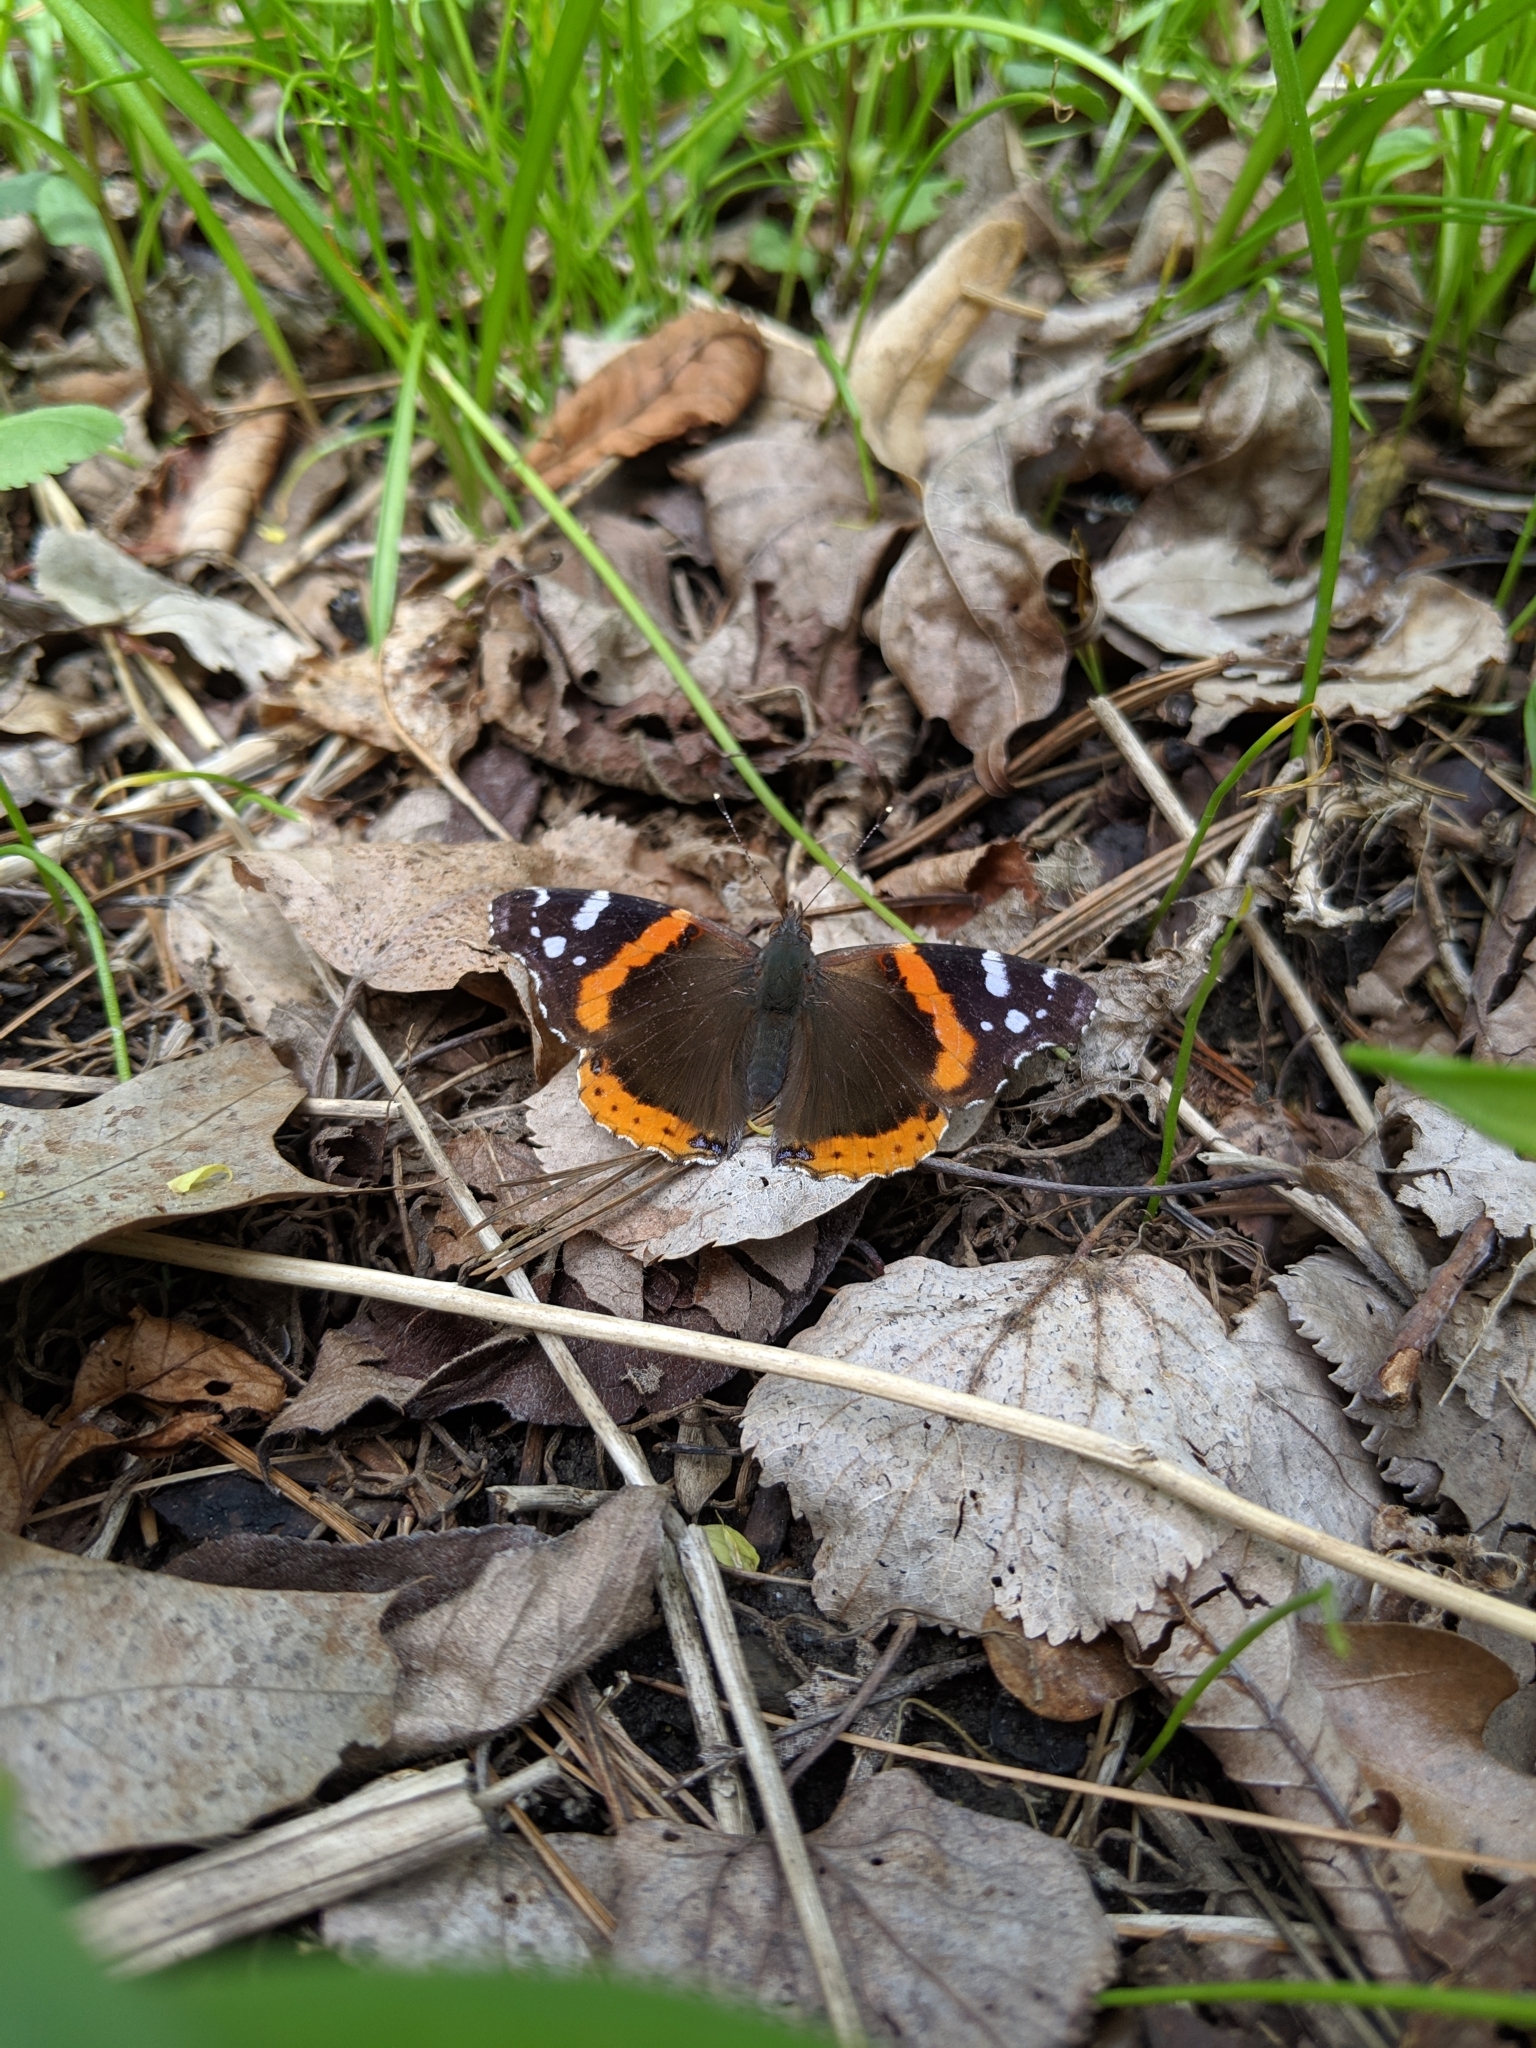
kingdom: Animalia
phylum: Arthropoda
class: Insecta
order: Lepidoptera
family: Nymphalidae
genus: Vanessa
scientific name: Vanessa atalanta
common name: Red admiral
